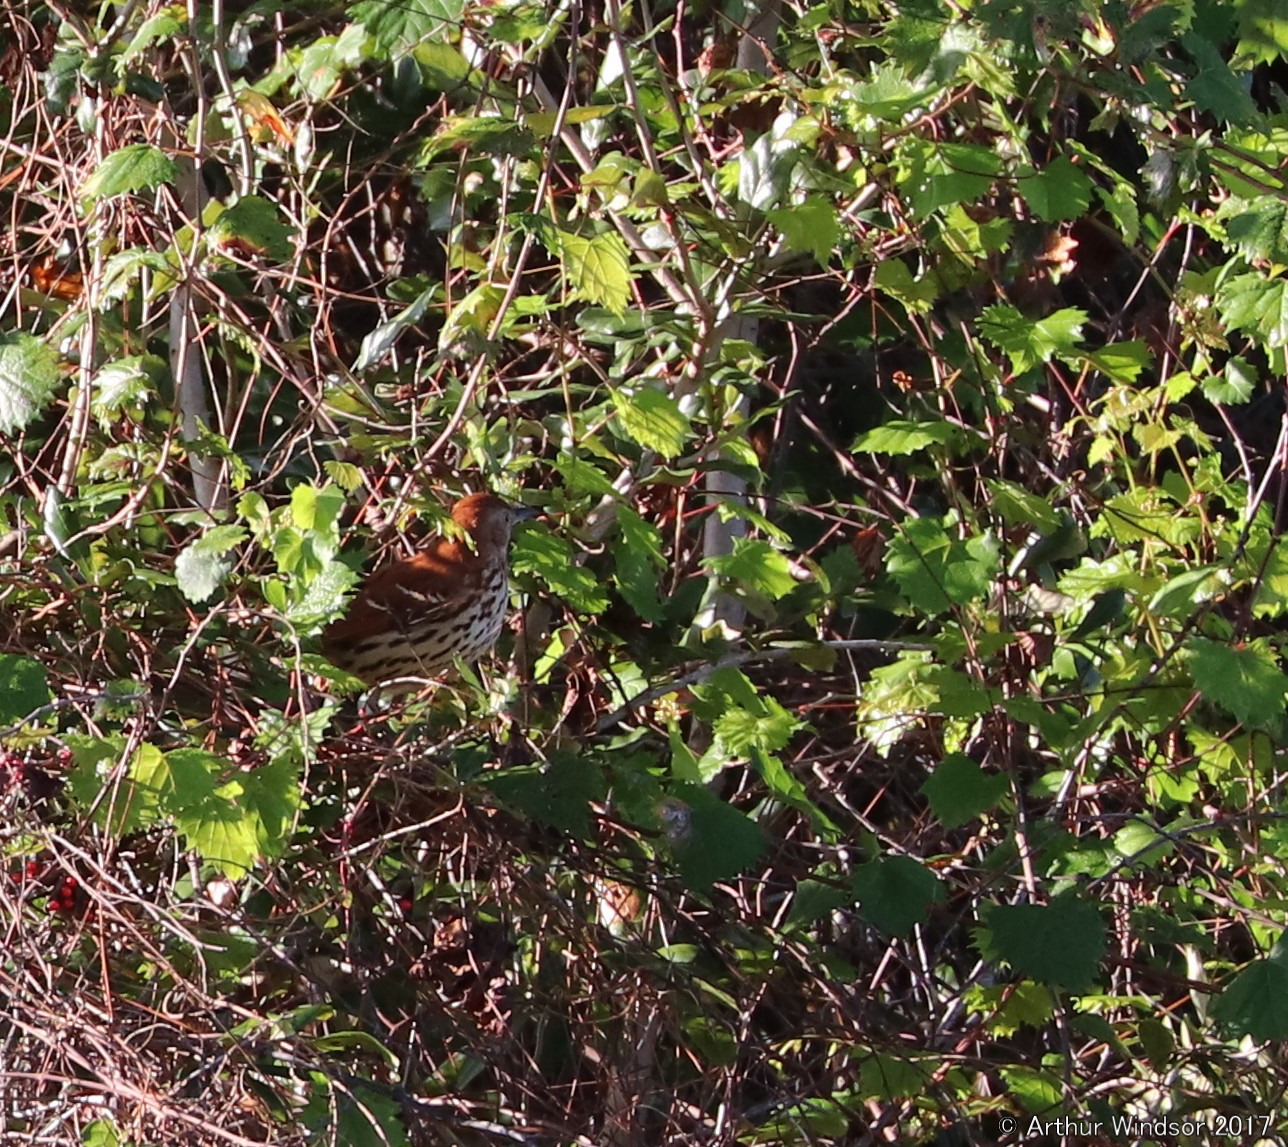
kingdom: Animalia
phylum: Chordata
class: Aves
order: Passeriformes
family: Mimidae
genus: Toxostoma
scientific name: Toxostoma rufum
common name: Brown thrasher
